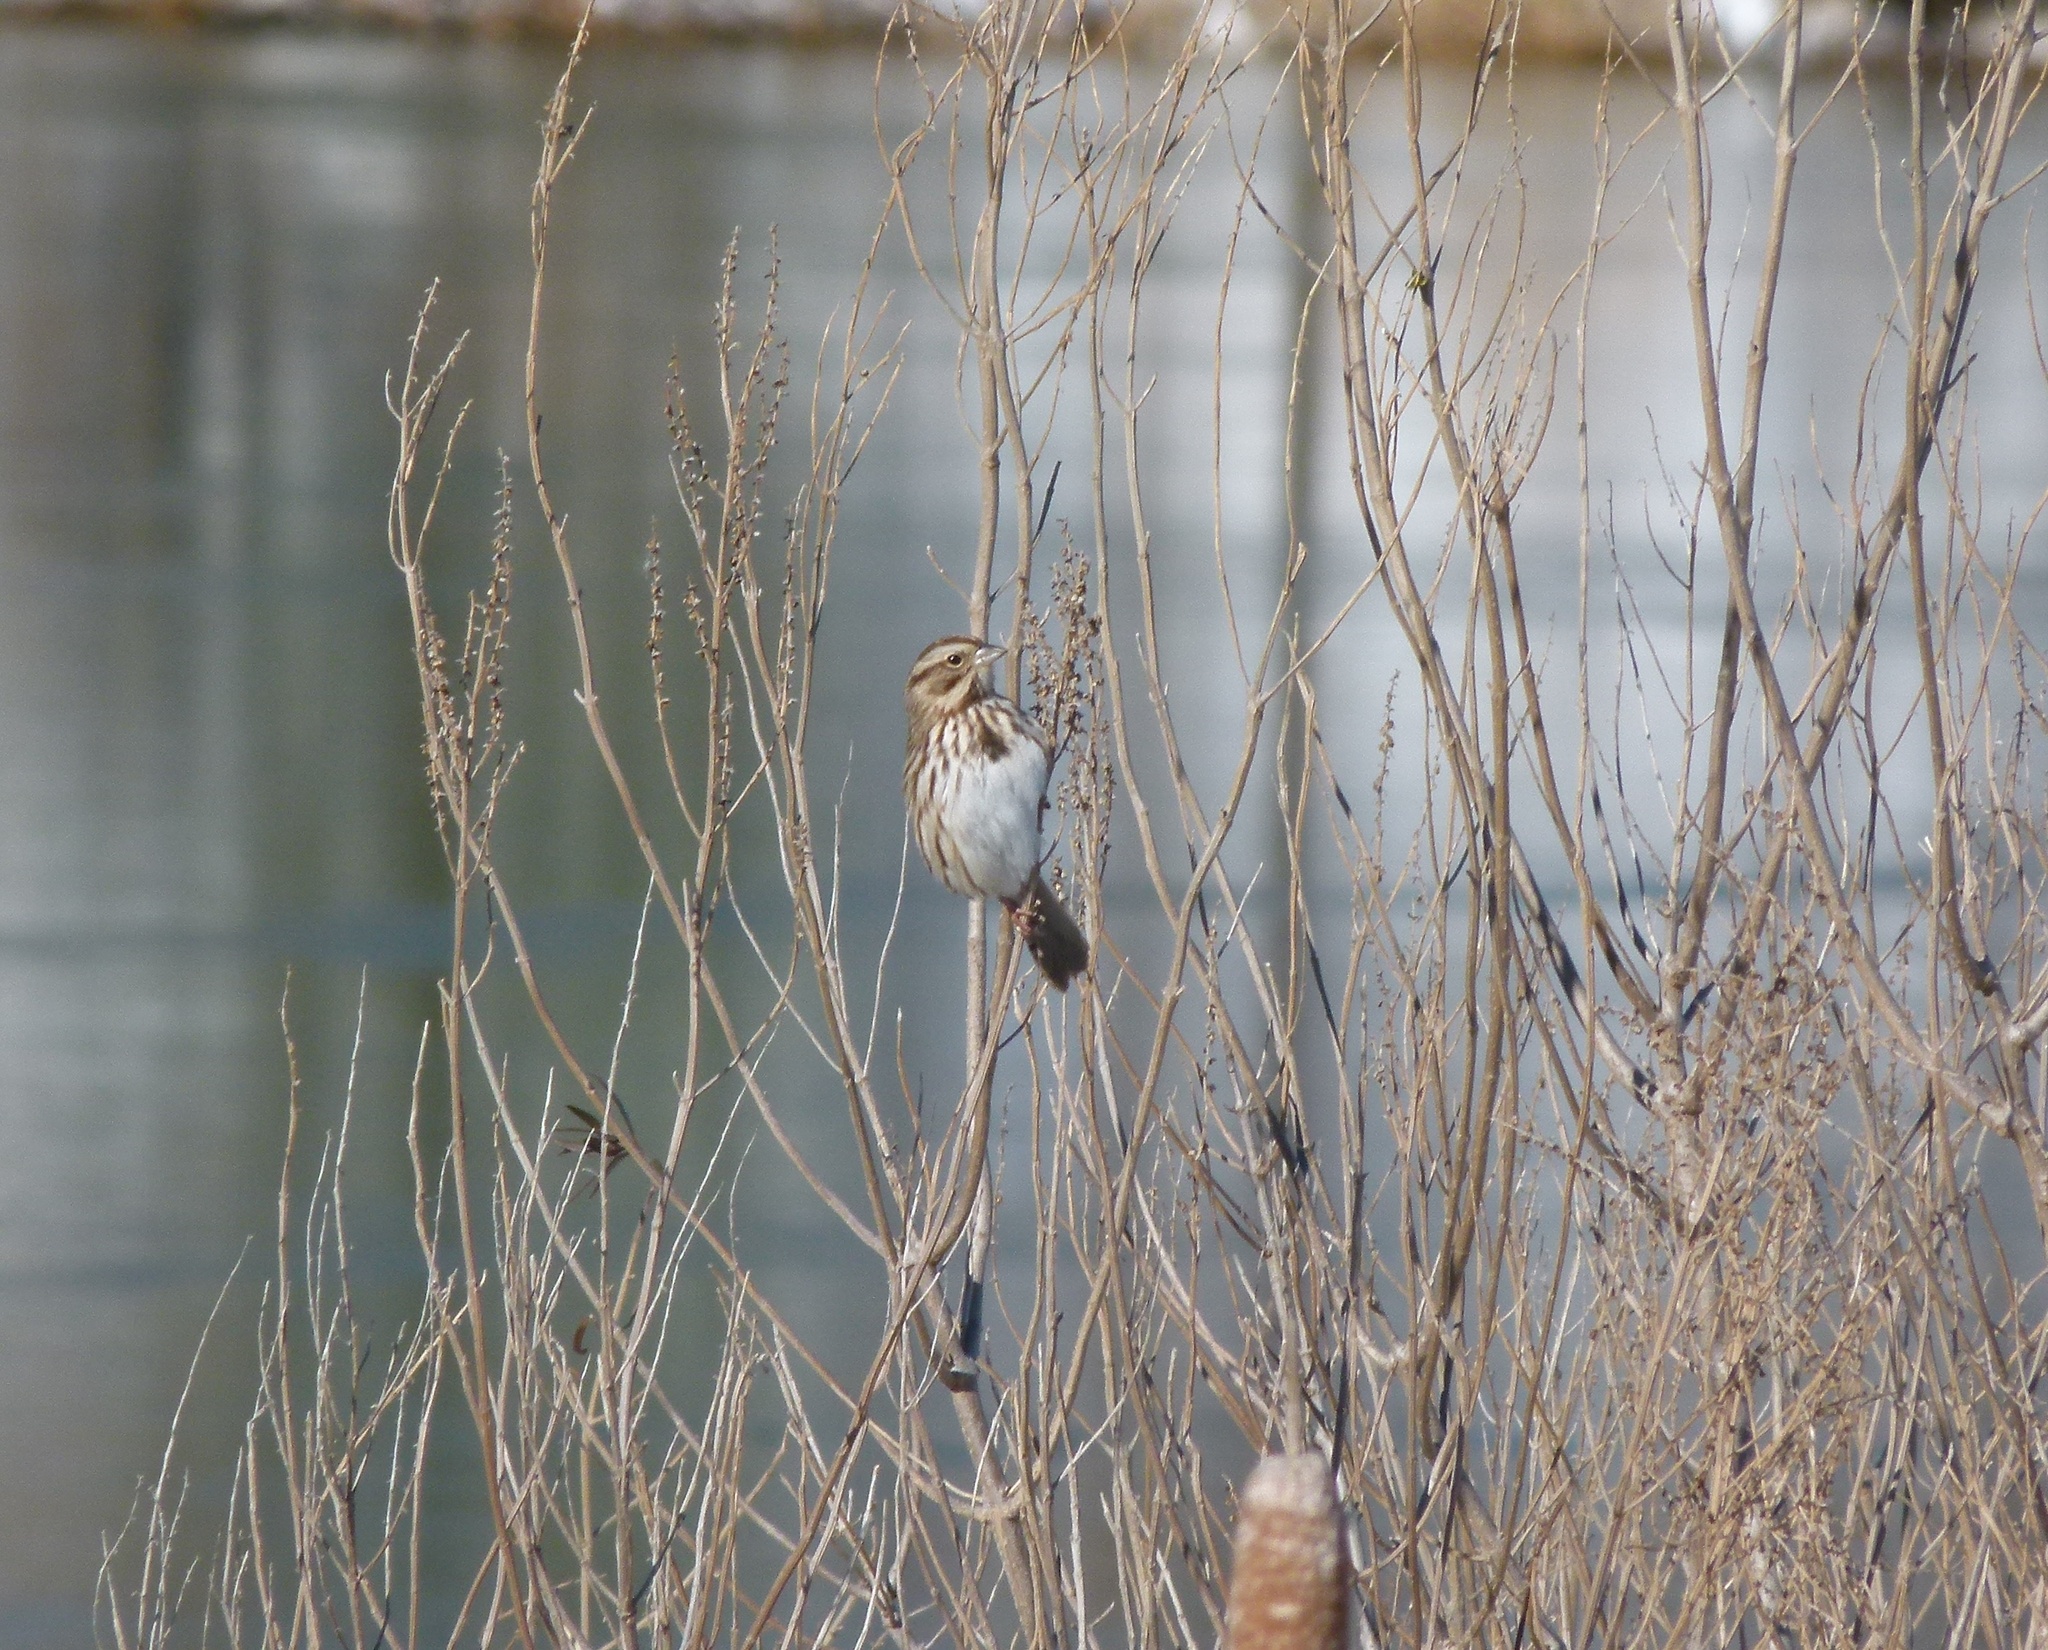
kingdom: Animalia
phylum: Chordata
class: Aves
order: Passeriformes
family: Passerellidae
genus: Melospiza
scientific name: Melospiza melodia
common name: Song sparrow
